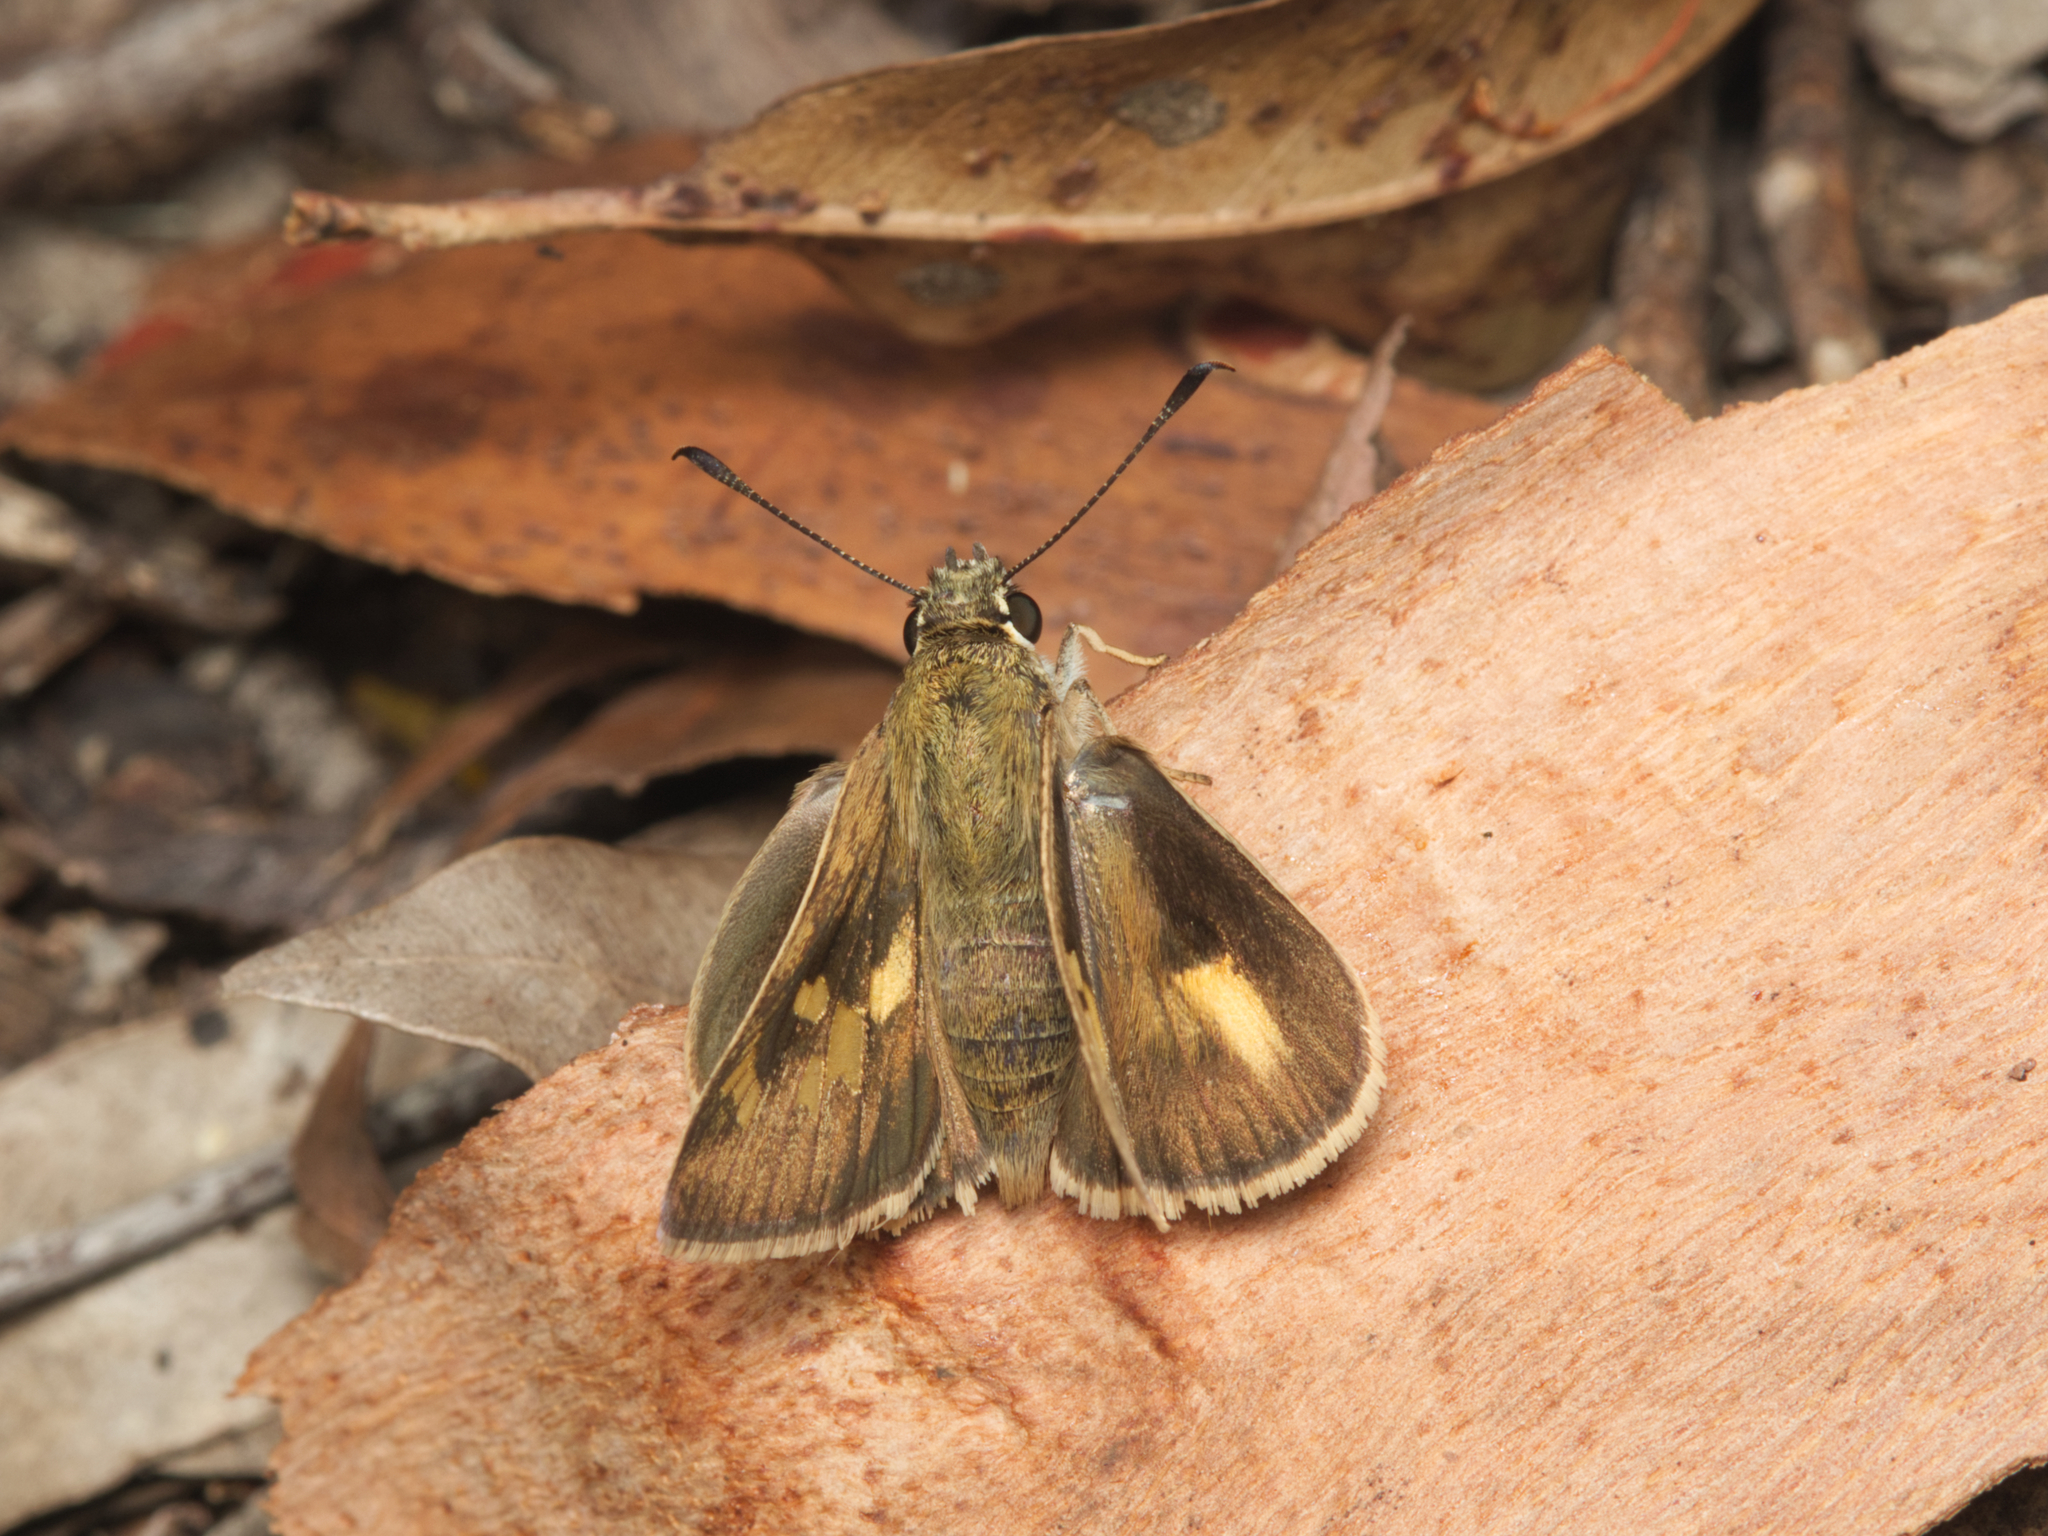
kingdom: Animalia
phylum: Arthropoda
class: Insecta
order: Lepidoptera
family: Hesperiidae
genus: Trapezites
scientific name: Trapezites petalia
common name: Black-ringed ochre
